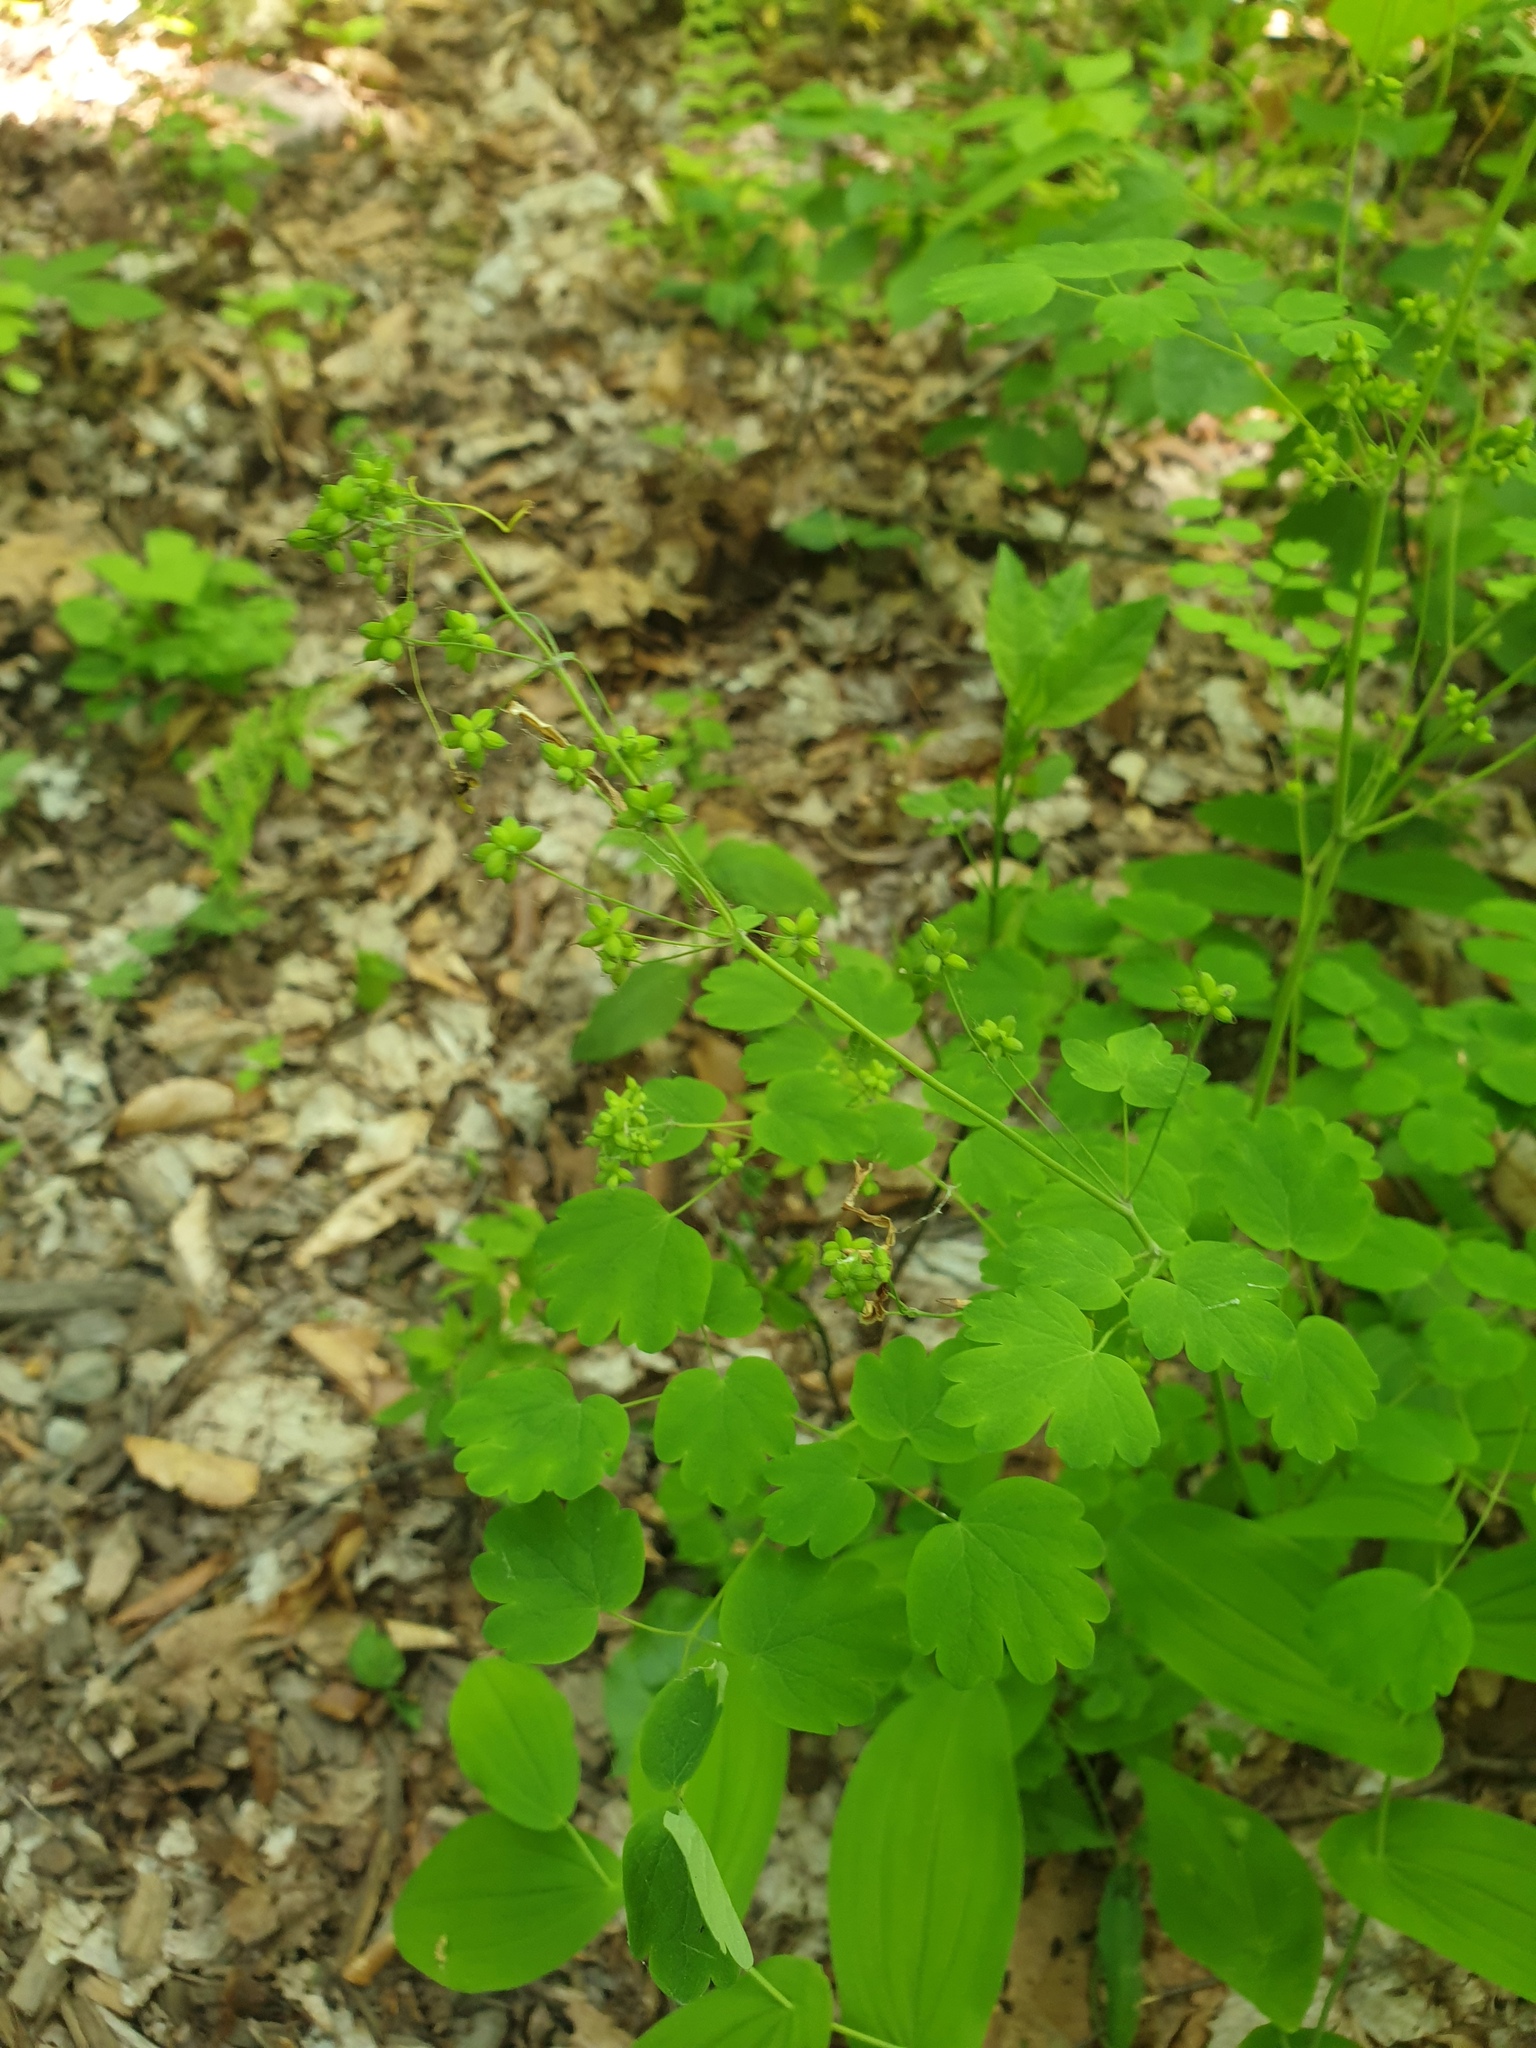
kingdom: Plantae
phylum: Tracheophyta
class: Magnoliopsida
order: Ranunculales
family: Ranunculaceae
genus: Thalictrum
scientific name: Thalictrum dioicum
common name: Early meadow-rue
